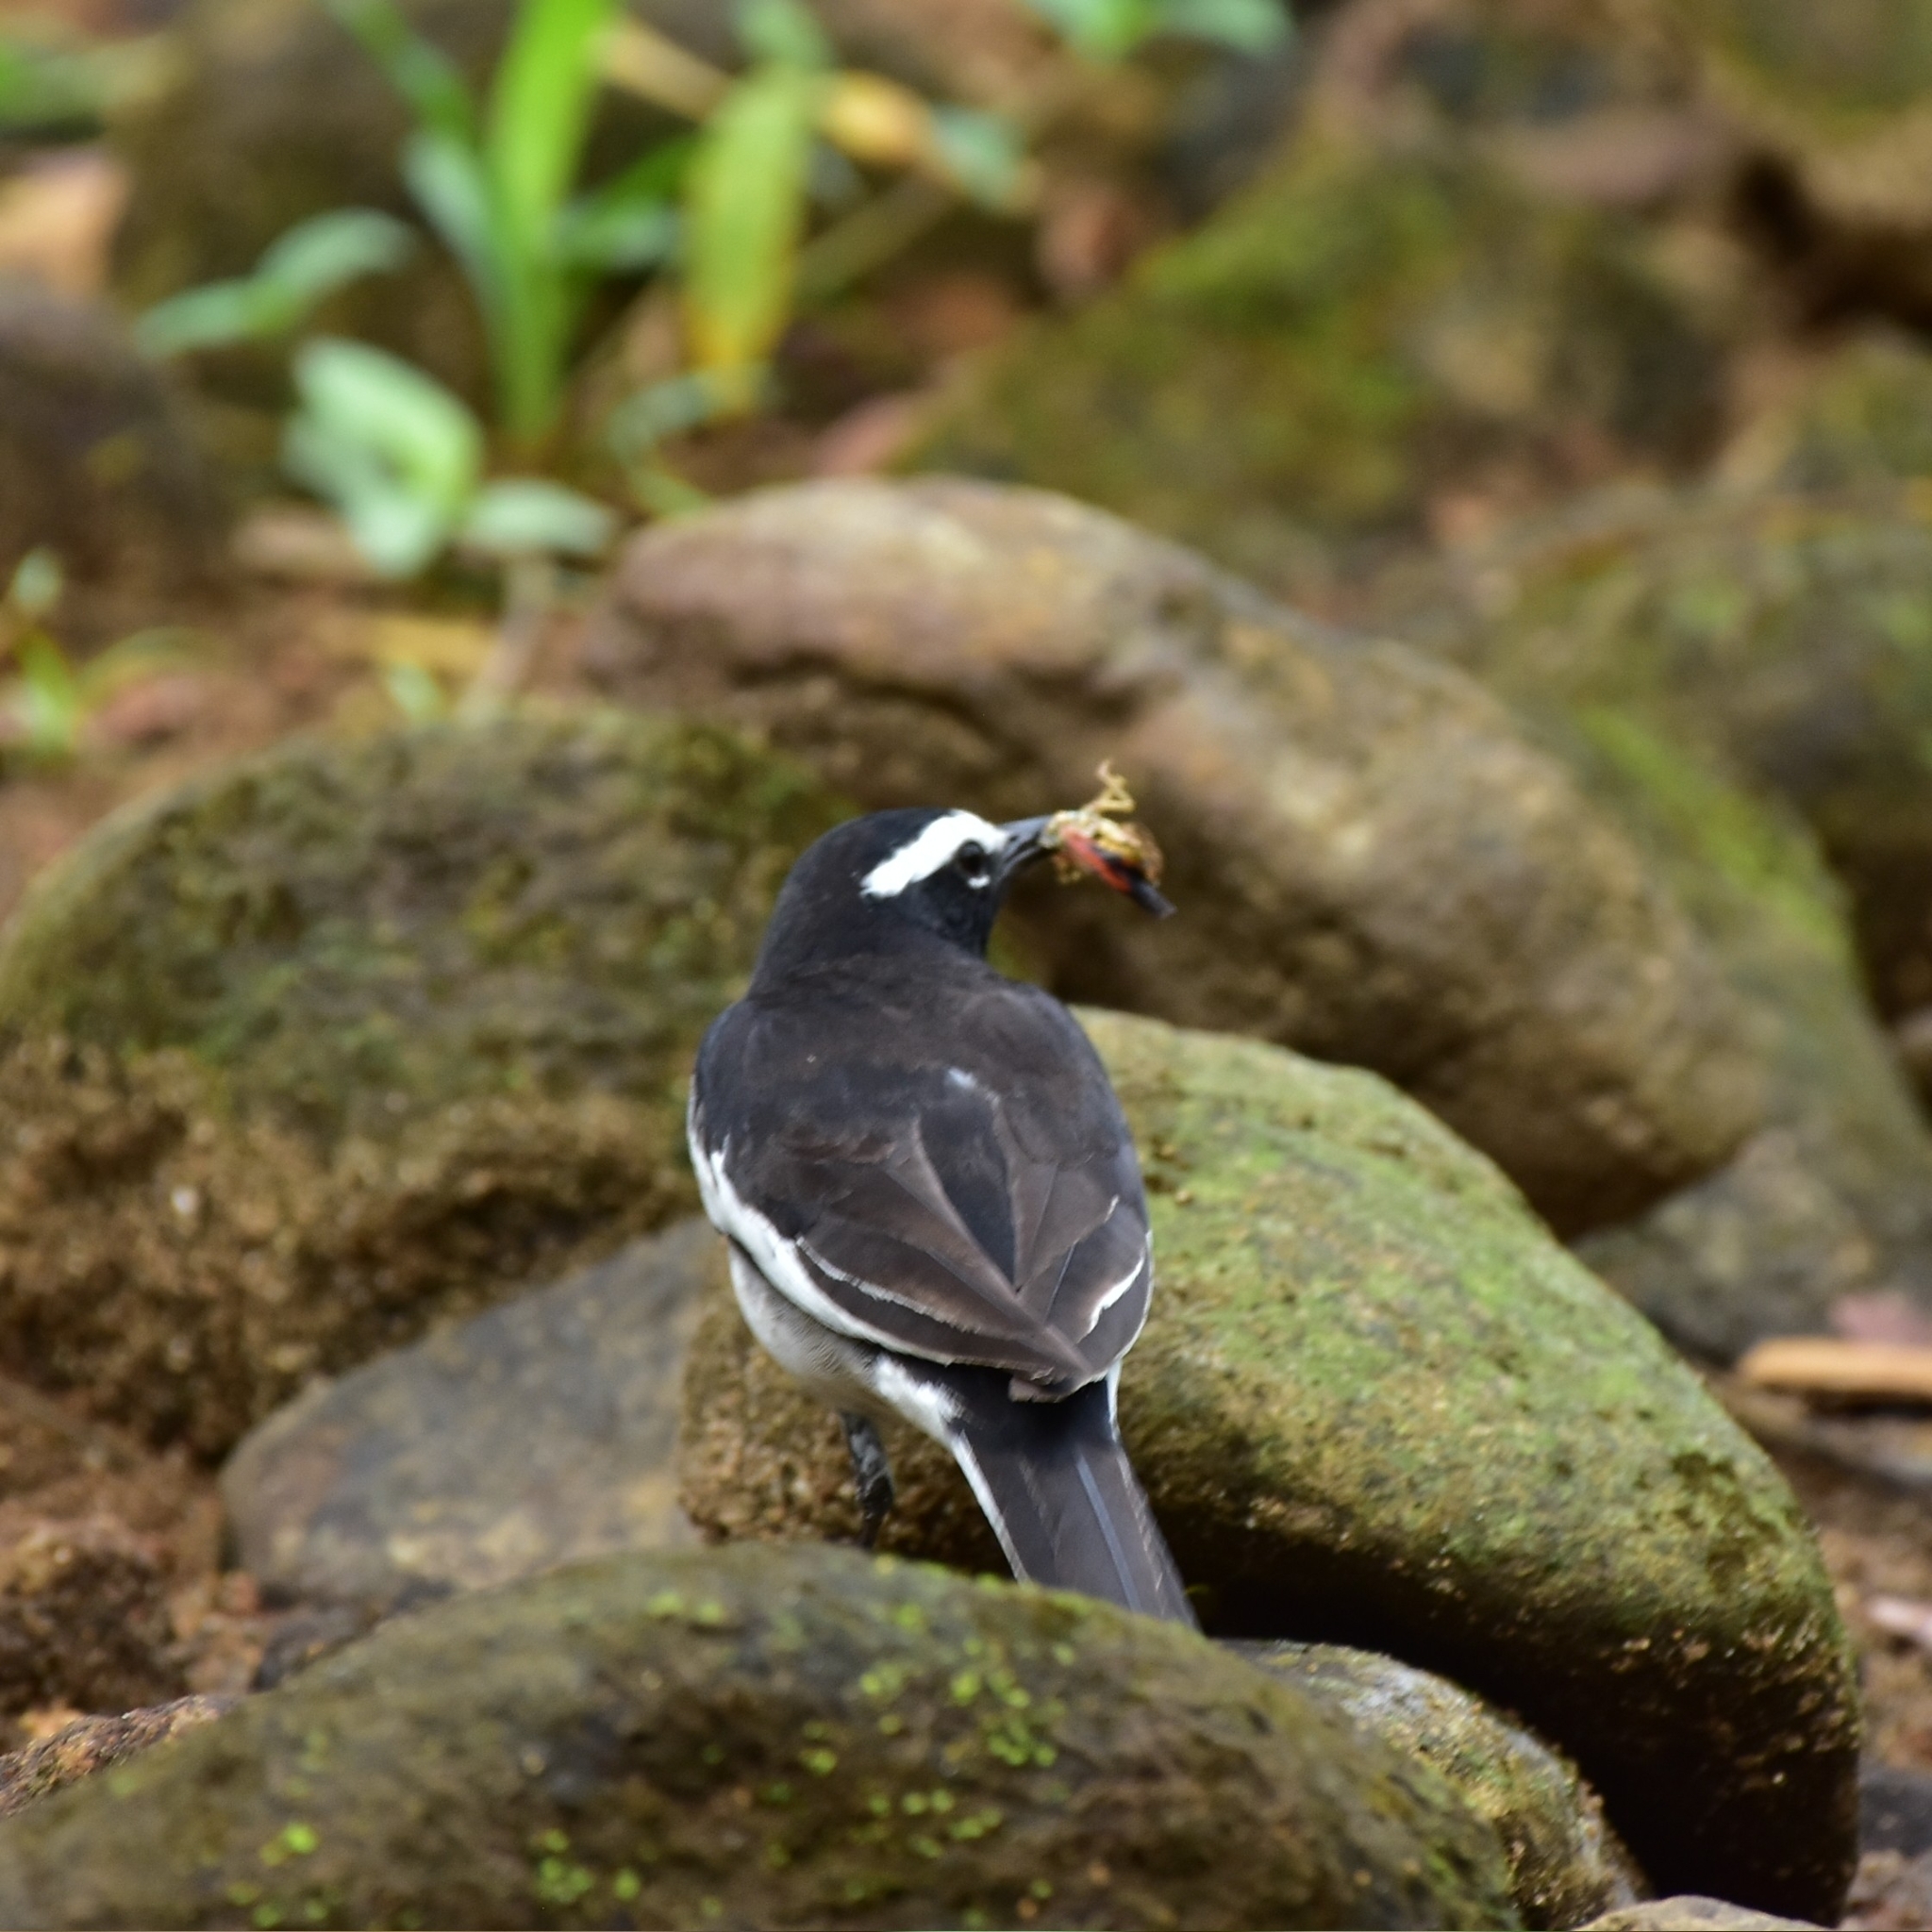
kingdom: Animalia
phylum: Chordata
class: Aves
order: Passeriformes
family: Motacillidae
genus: Motacilla
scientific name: Motacilla maderaspatensis
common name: White-browed wagtail
